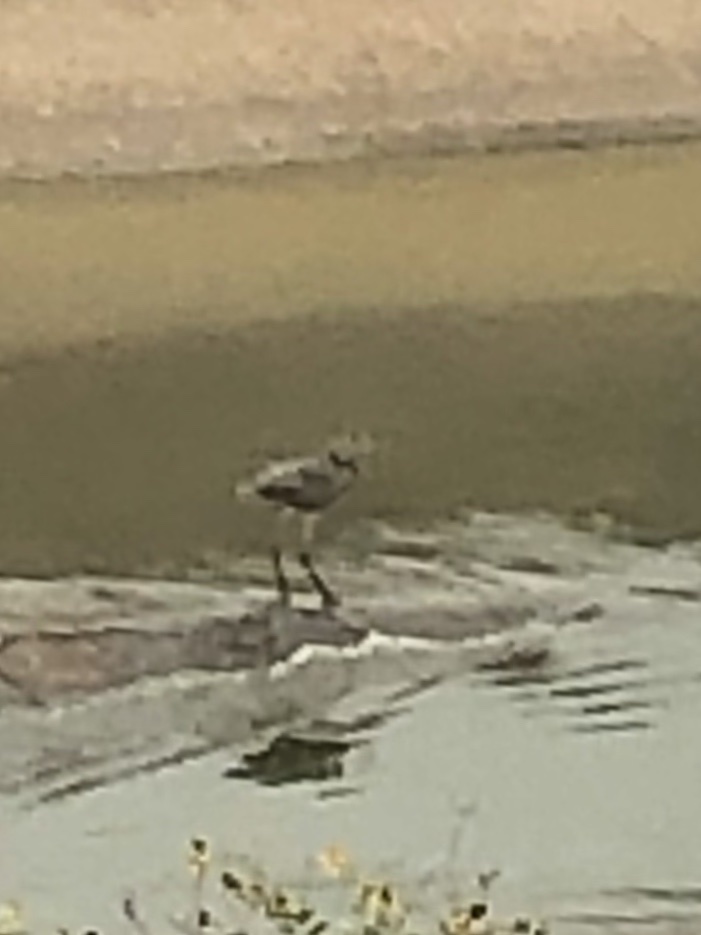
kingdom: Animalia
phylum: Chordata
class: Aves
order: Pelecaniformes
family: Ardeidae
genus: Ardea
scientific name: Ardea herodias
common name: Great blue heron
